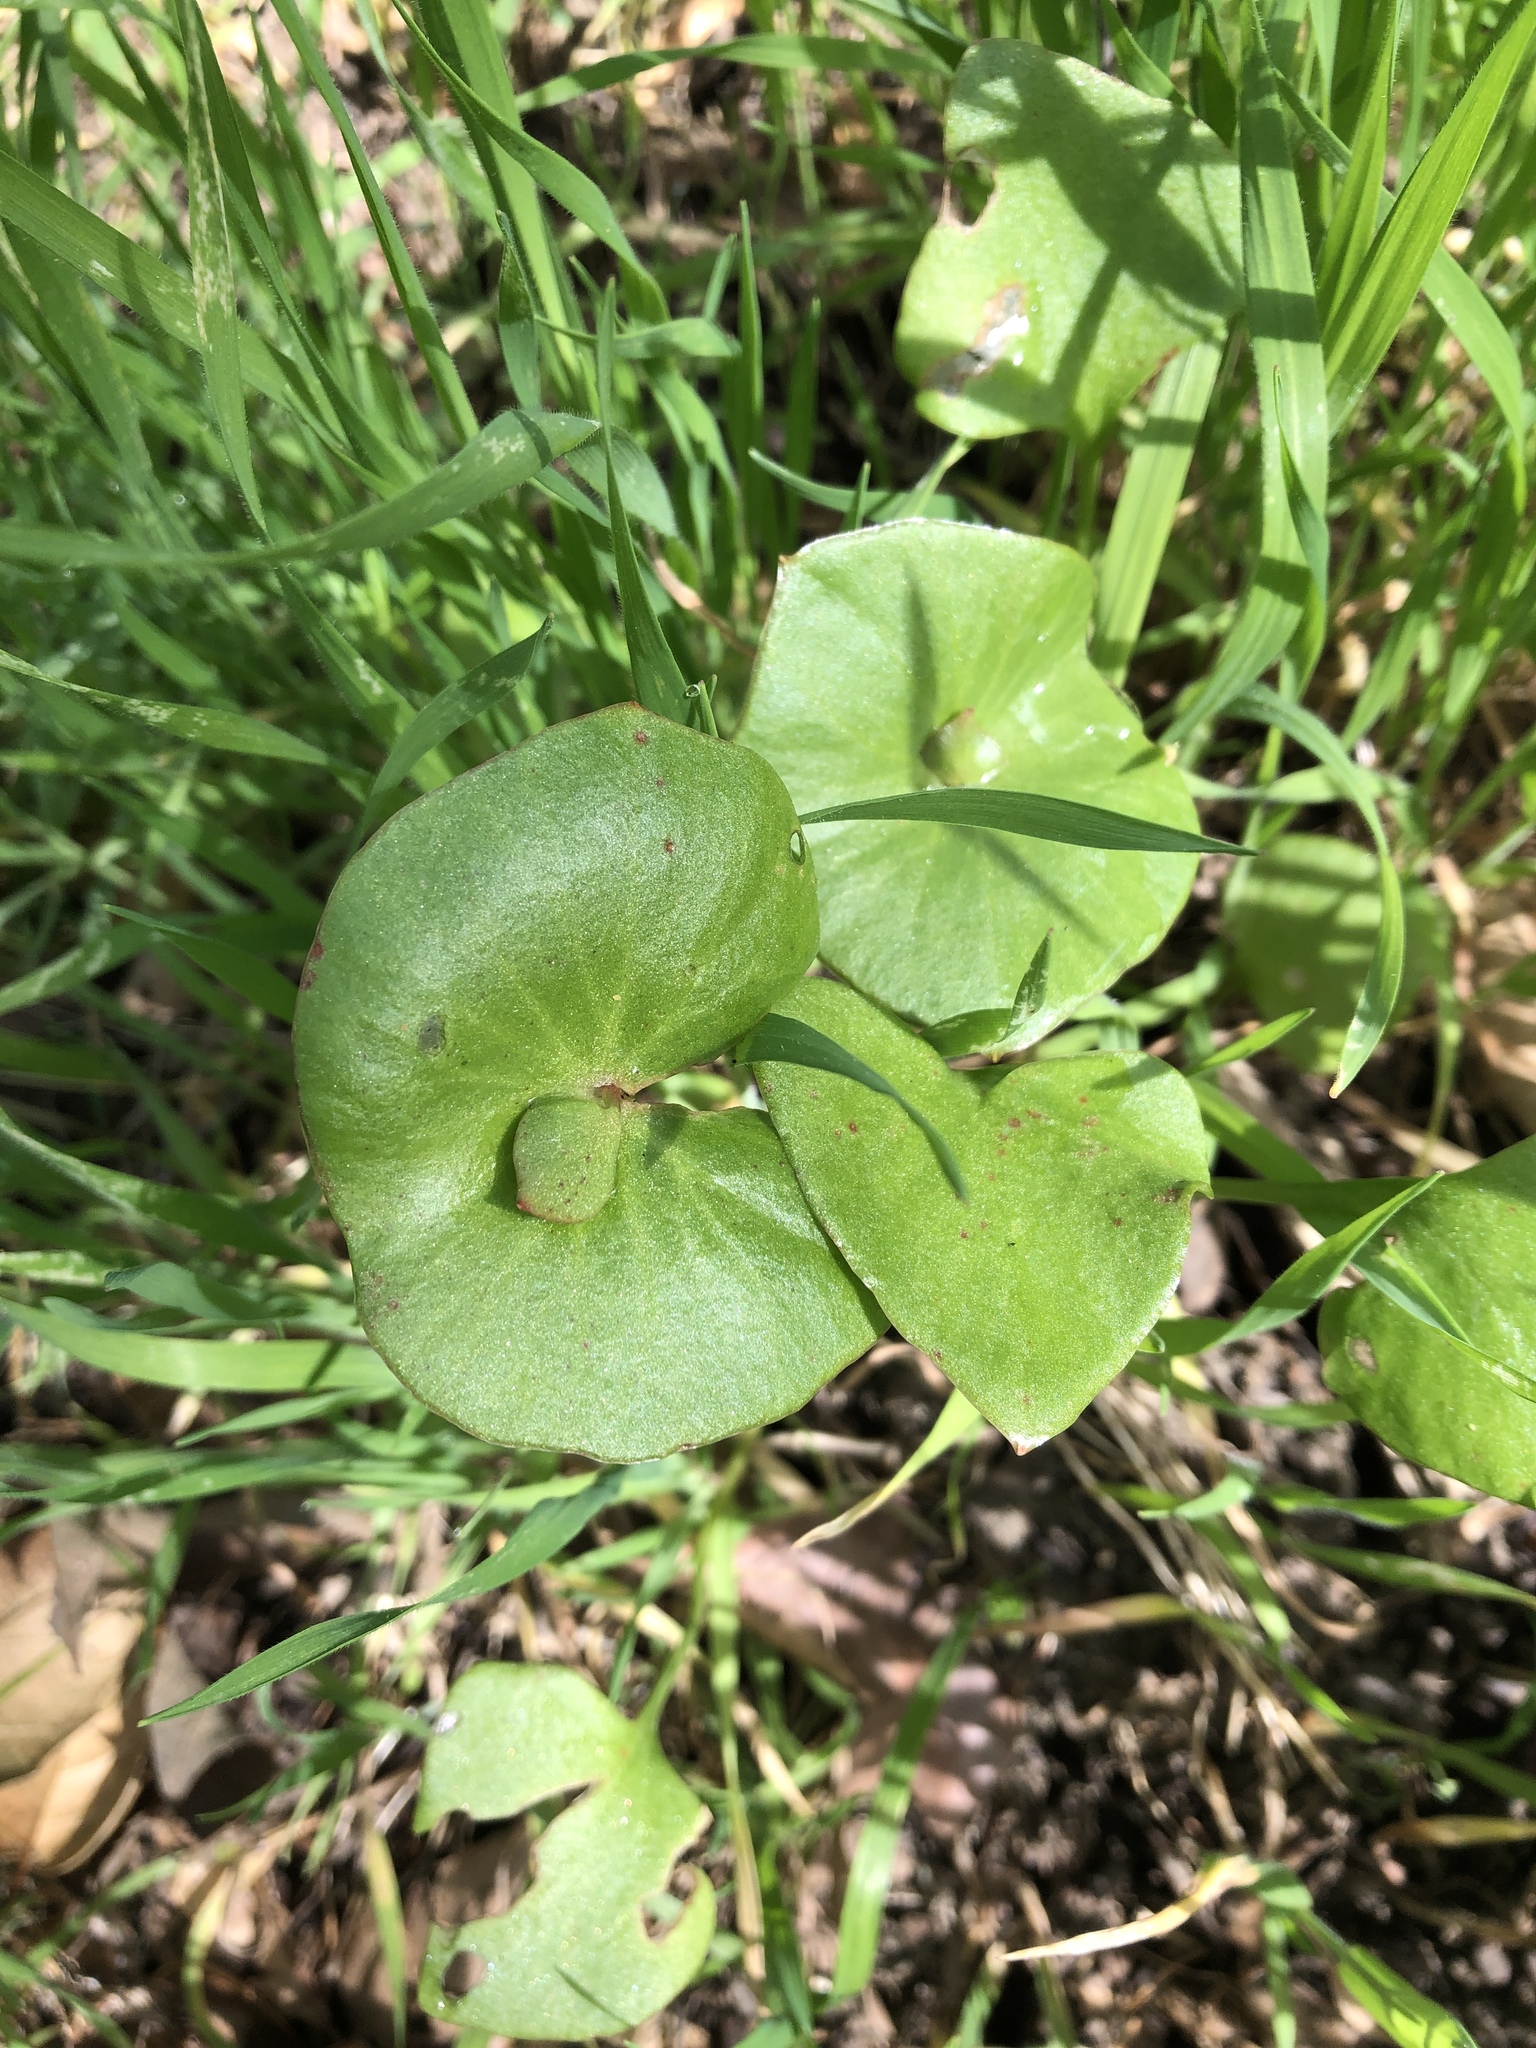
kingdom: Plantae
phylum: Tracheophyta
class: Magnoliopsida
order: Caryophyllales
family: Montiaceae
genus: Claytonia
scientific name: Claytonia perfoliata
